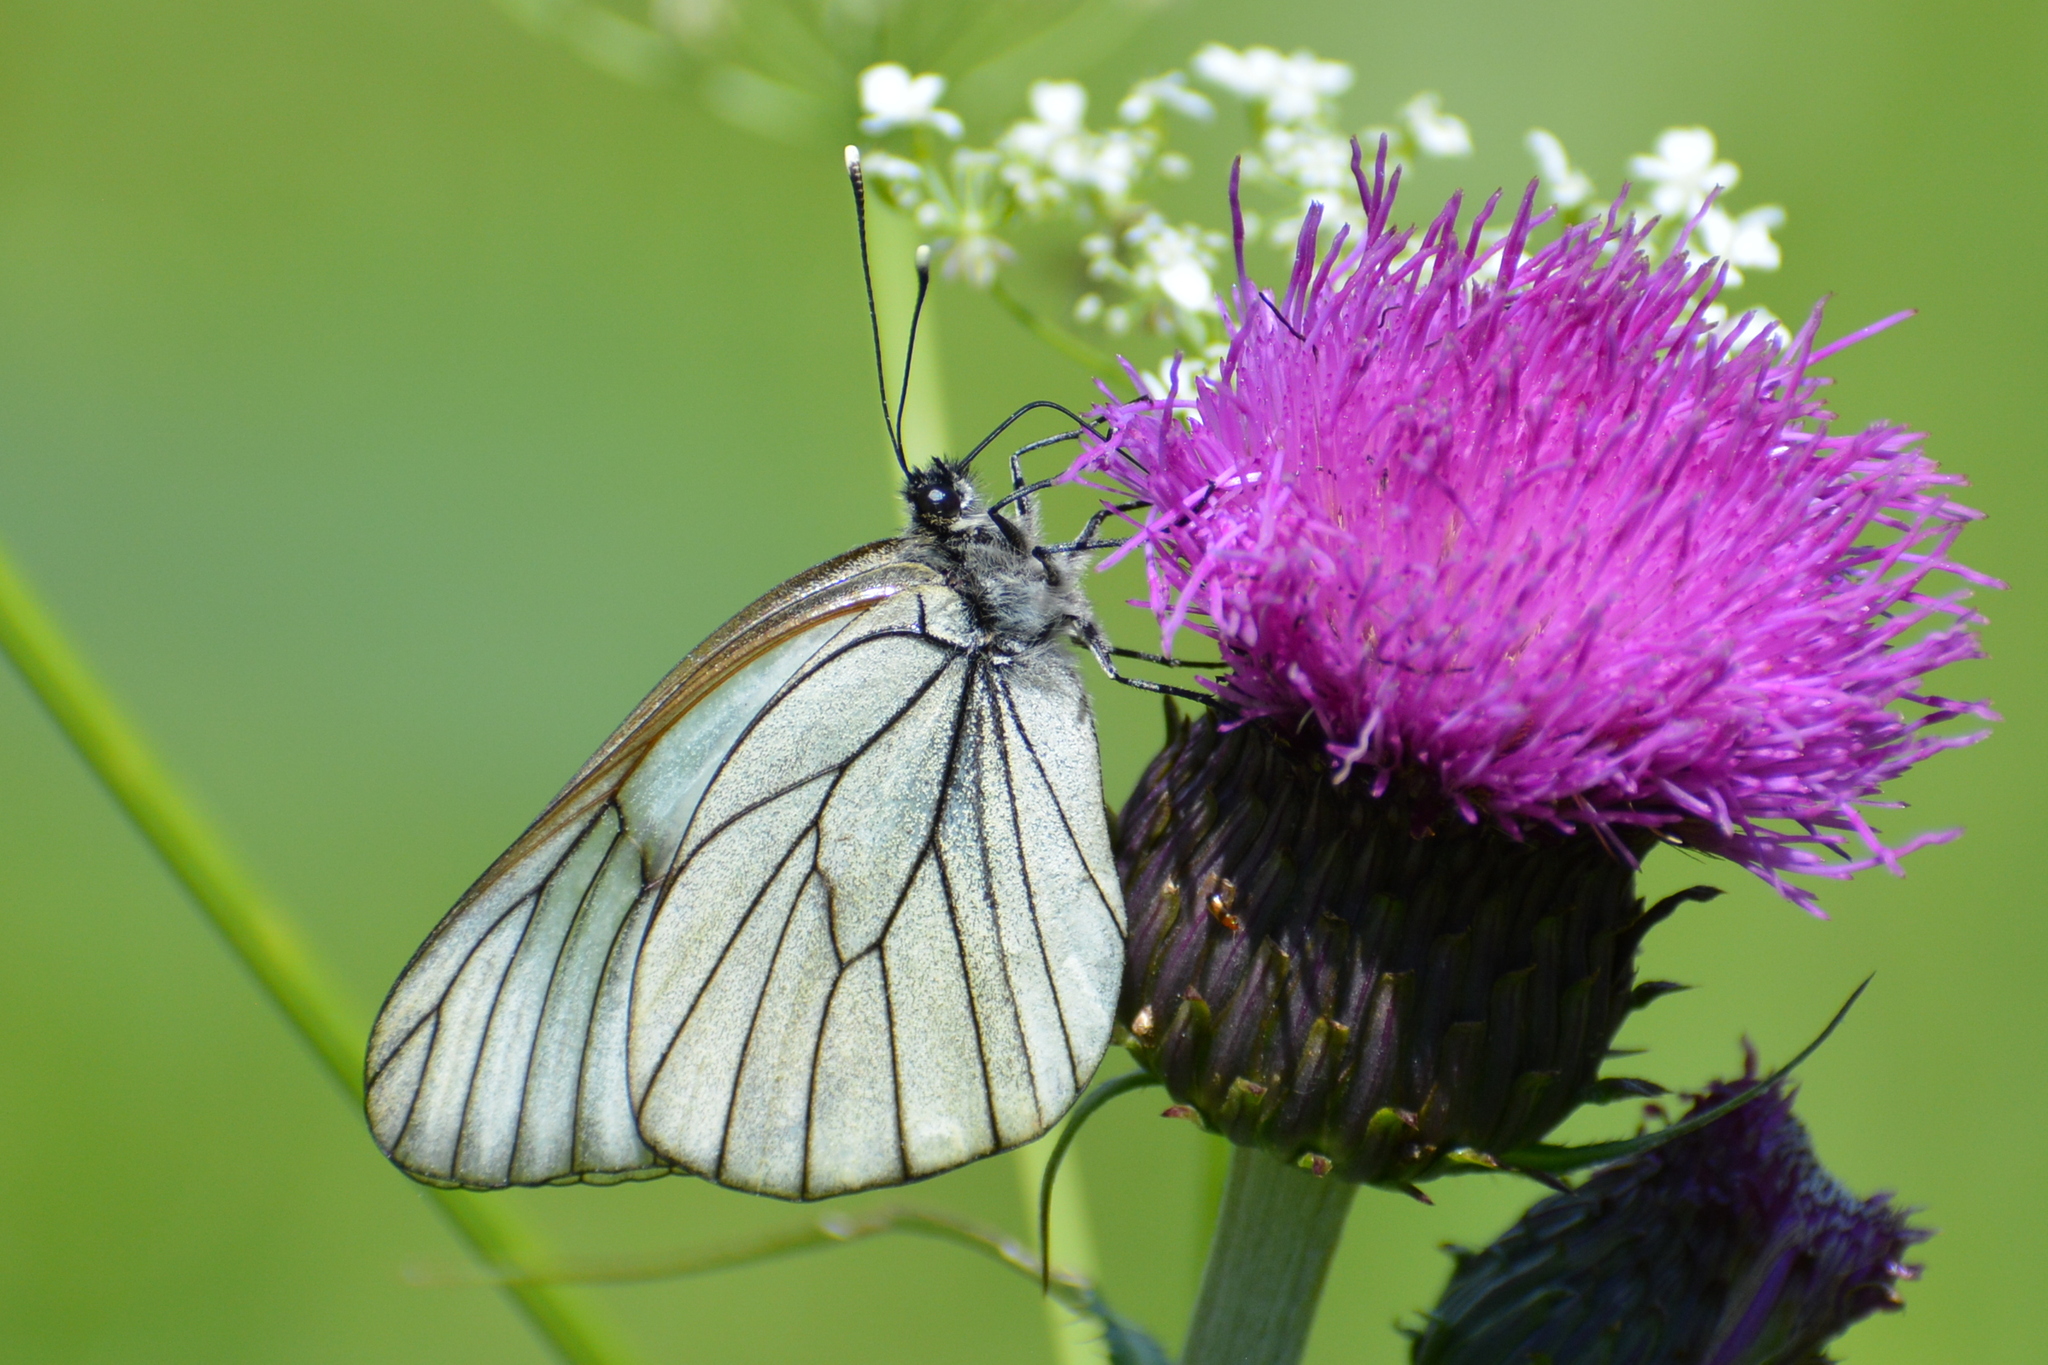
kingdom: Animalia
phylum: Arthropoda
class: Insecta
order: Lepidoptera
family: Pieridae
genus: Aporia
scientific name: Aporia crataegi
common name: Black-veined white
